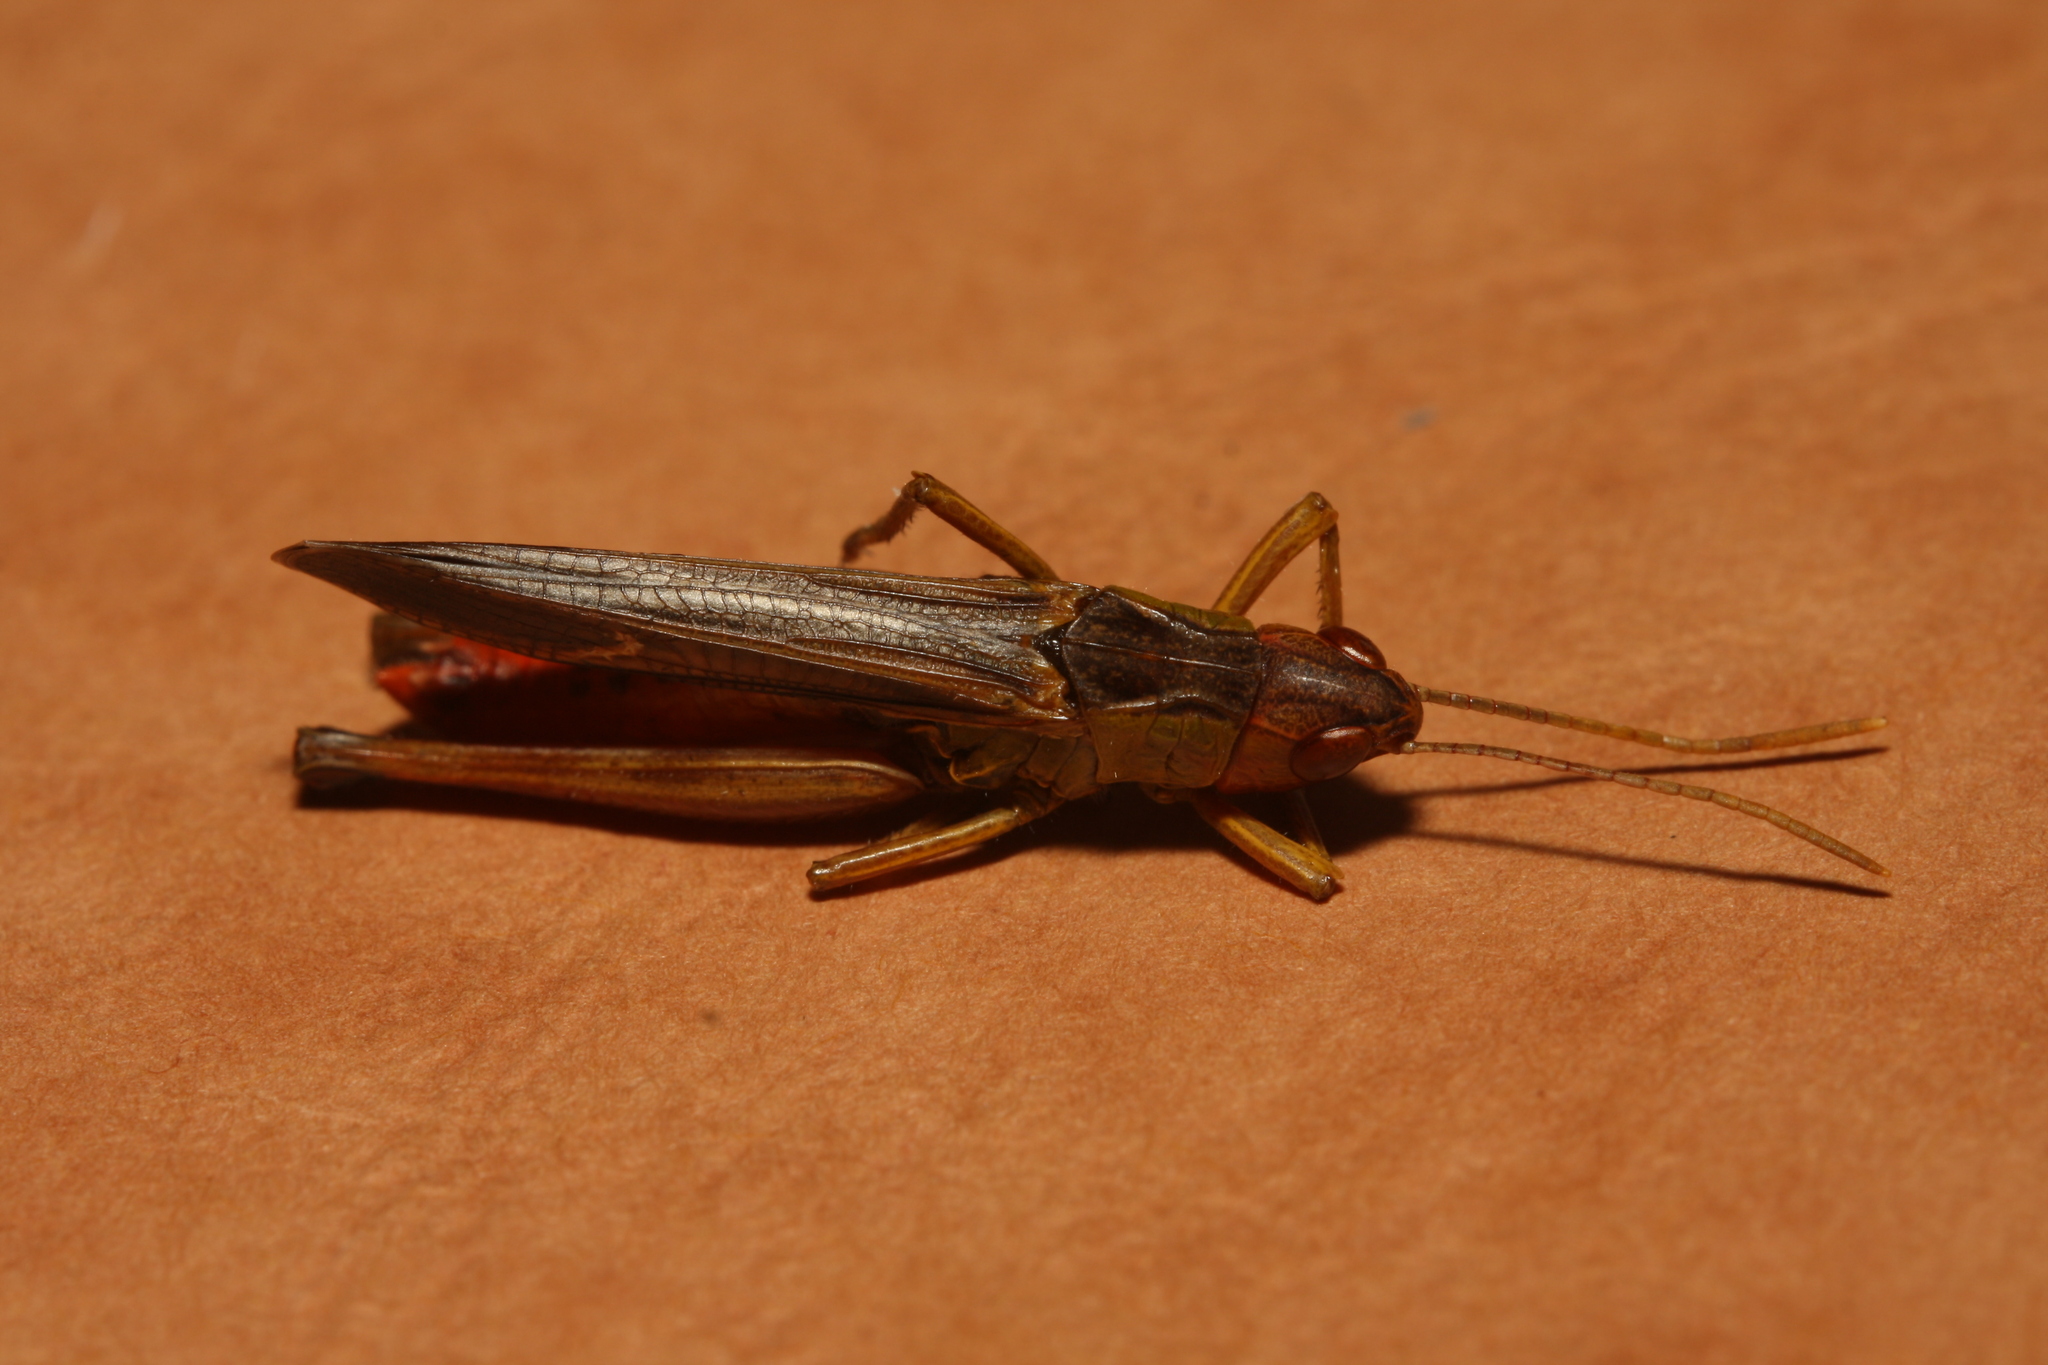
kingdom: Animalia
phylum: Arthropoda
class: Insecta
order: Orthoptera
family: Acrididae
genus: Stenobothrus
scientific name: Stenobothrus lineatus
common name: Stripe-winged grasshopper
